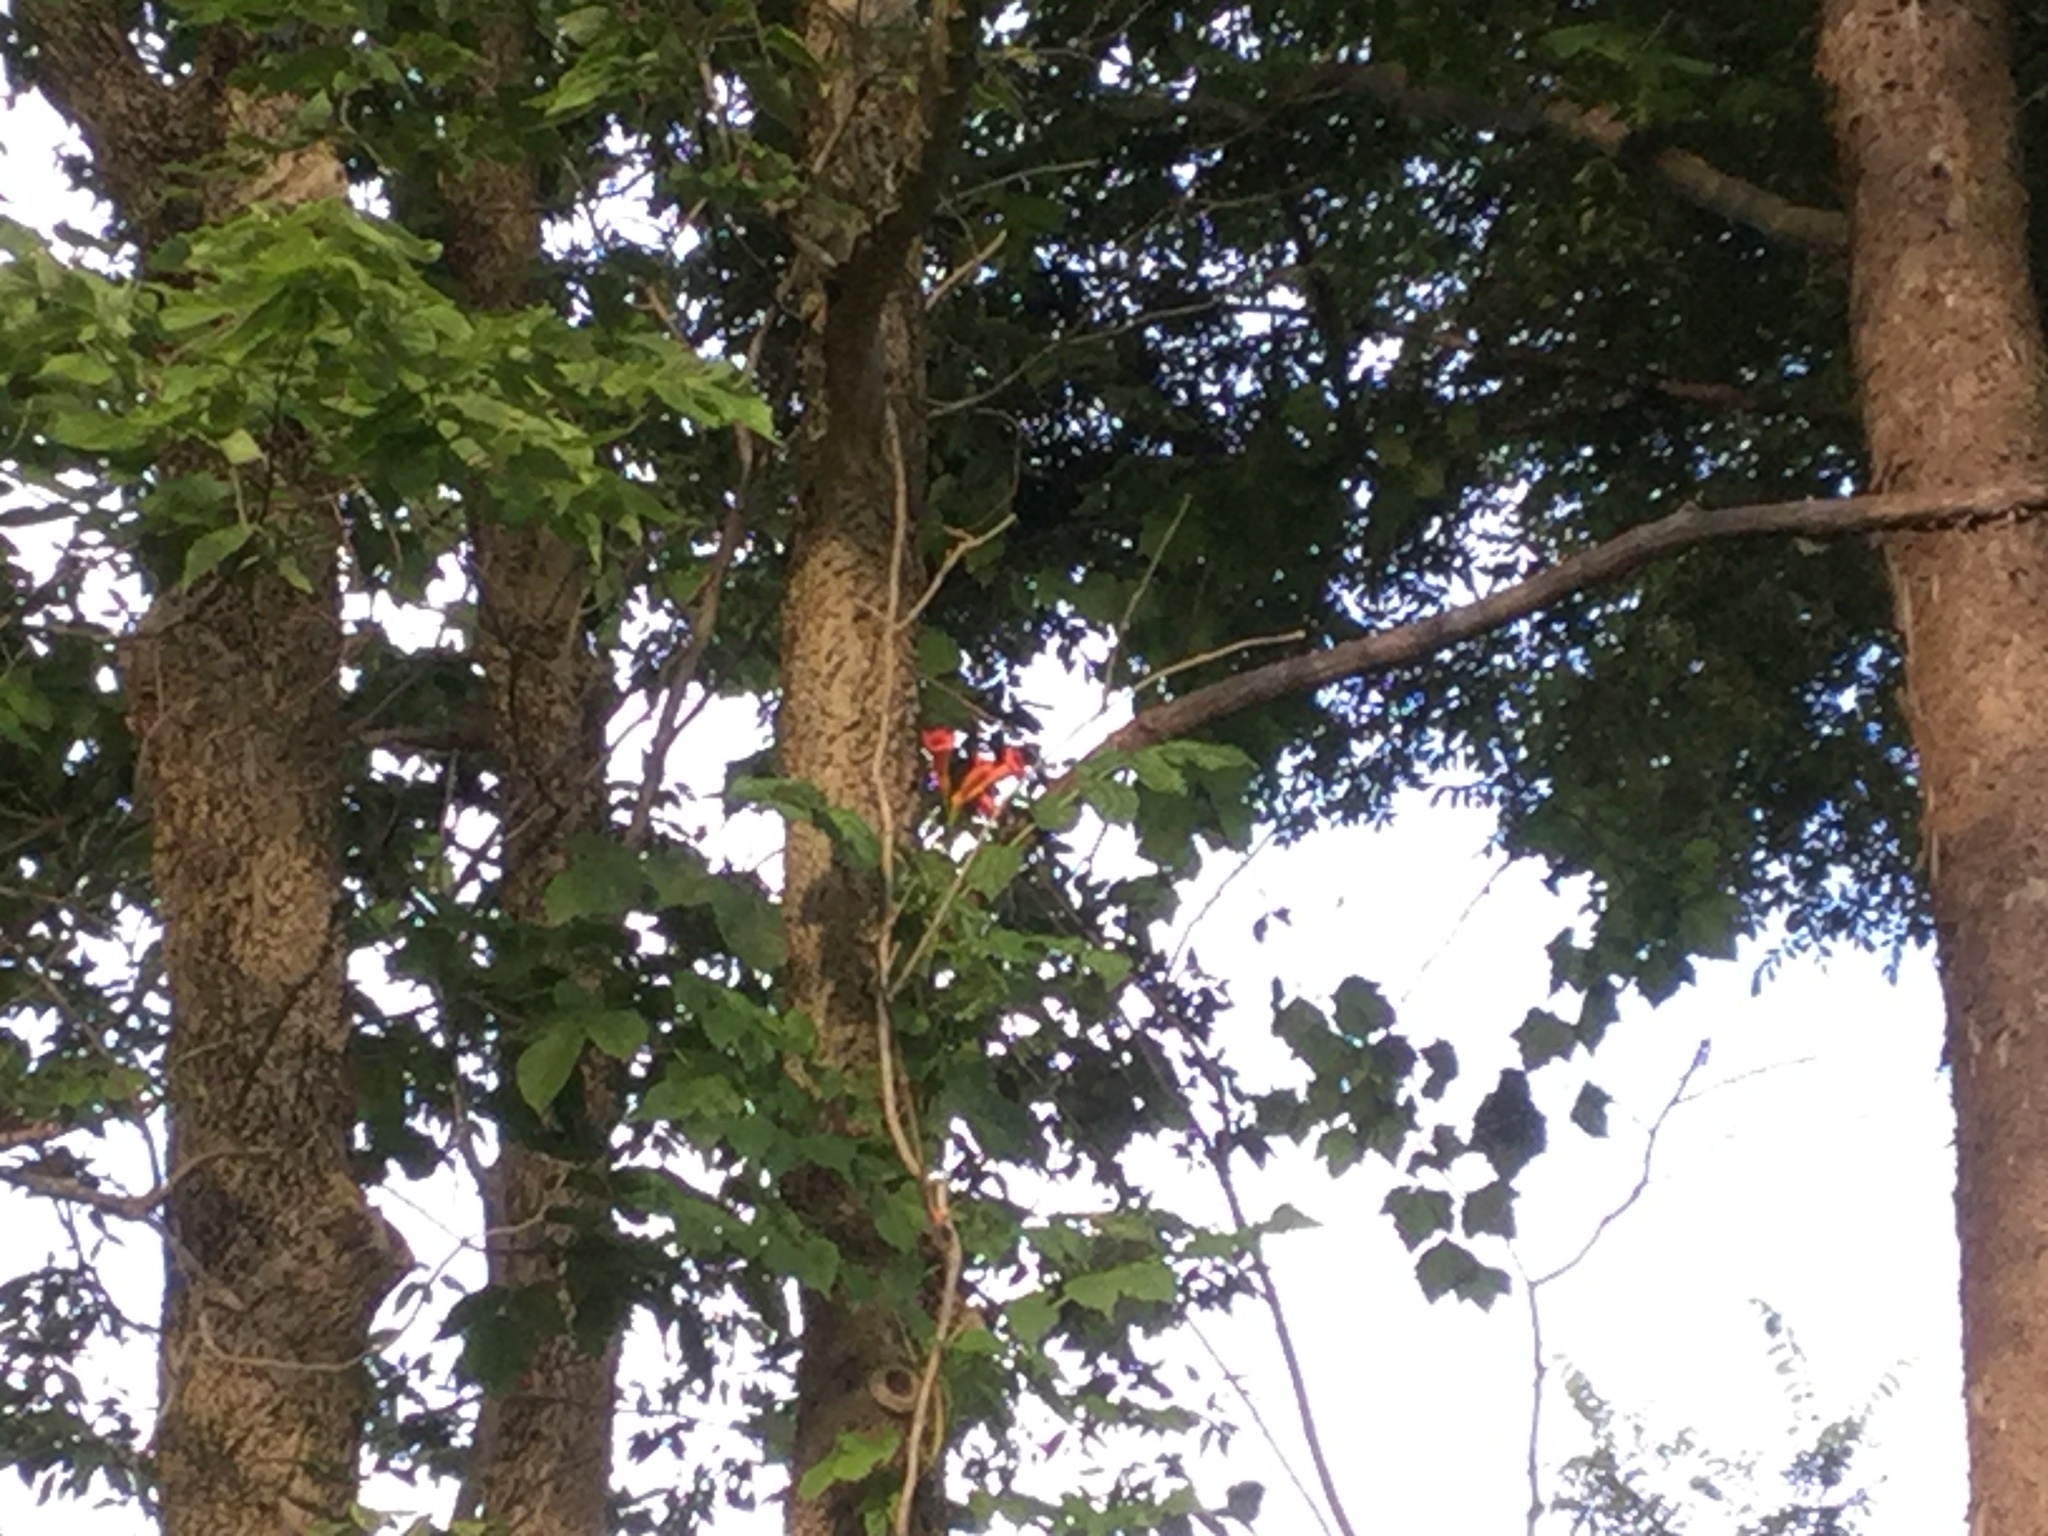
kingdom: Plantae
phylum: Tracheophyta
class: Magnoliopsida
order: Lamiales
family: Bignoniaceae
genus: Campsis
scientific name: Campsis radicans
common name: Trumpet-creeper
